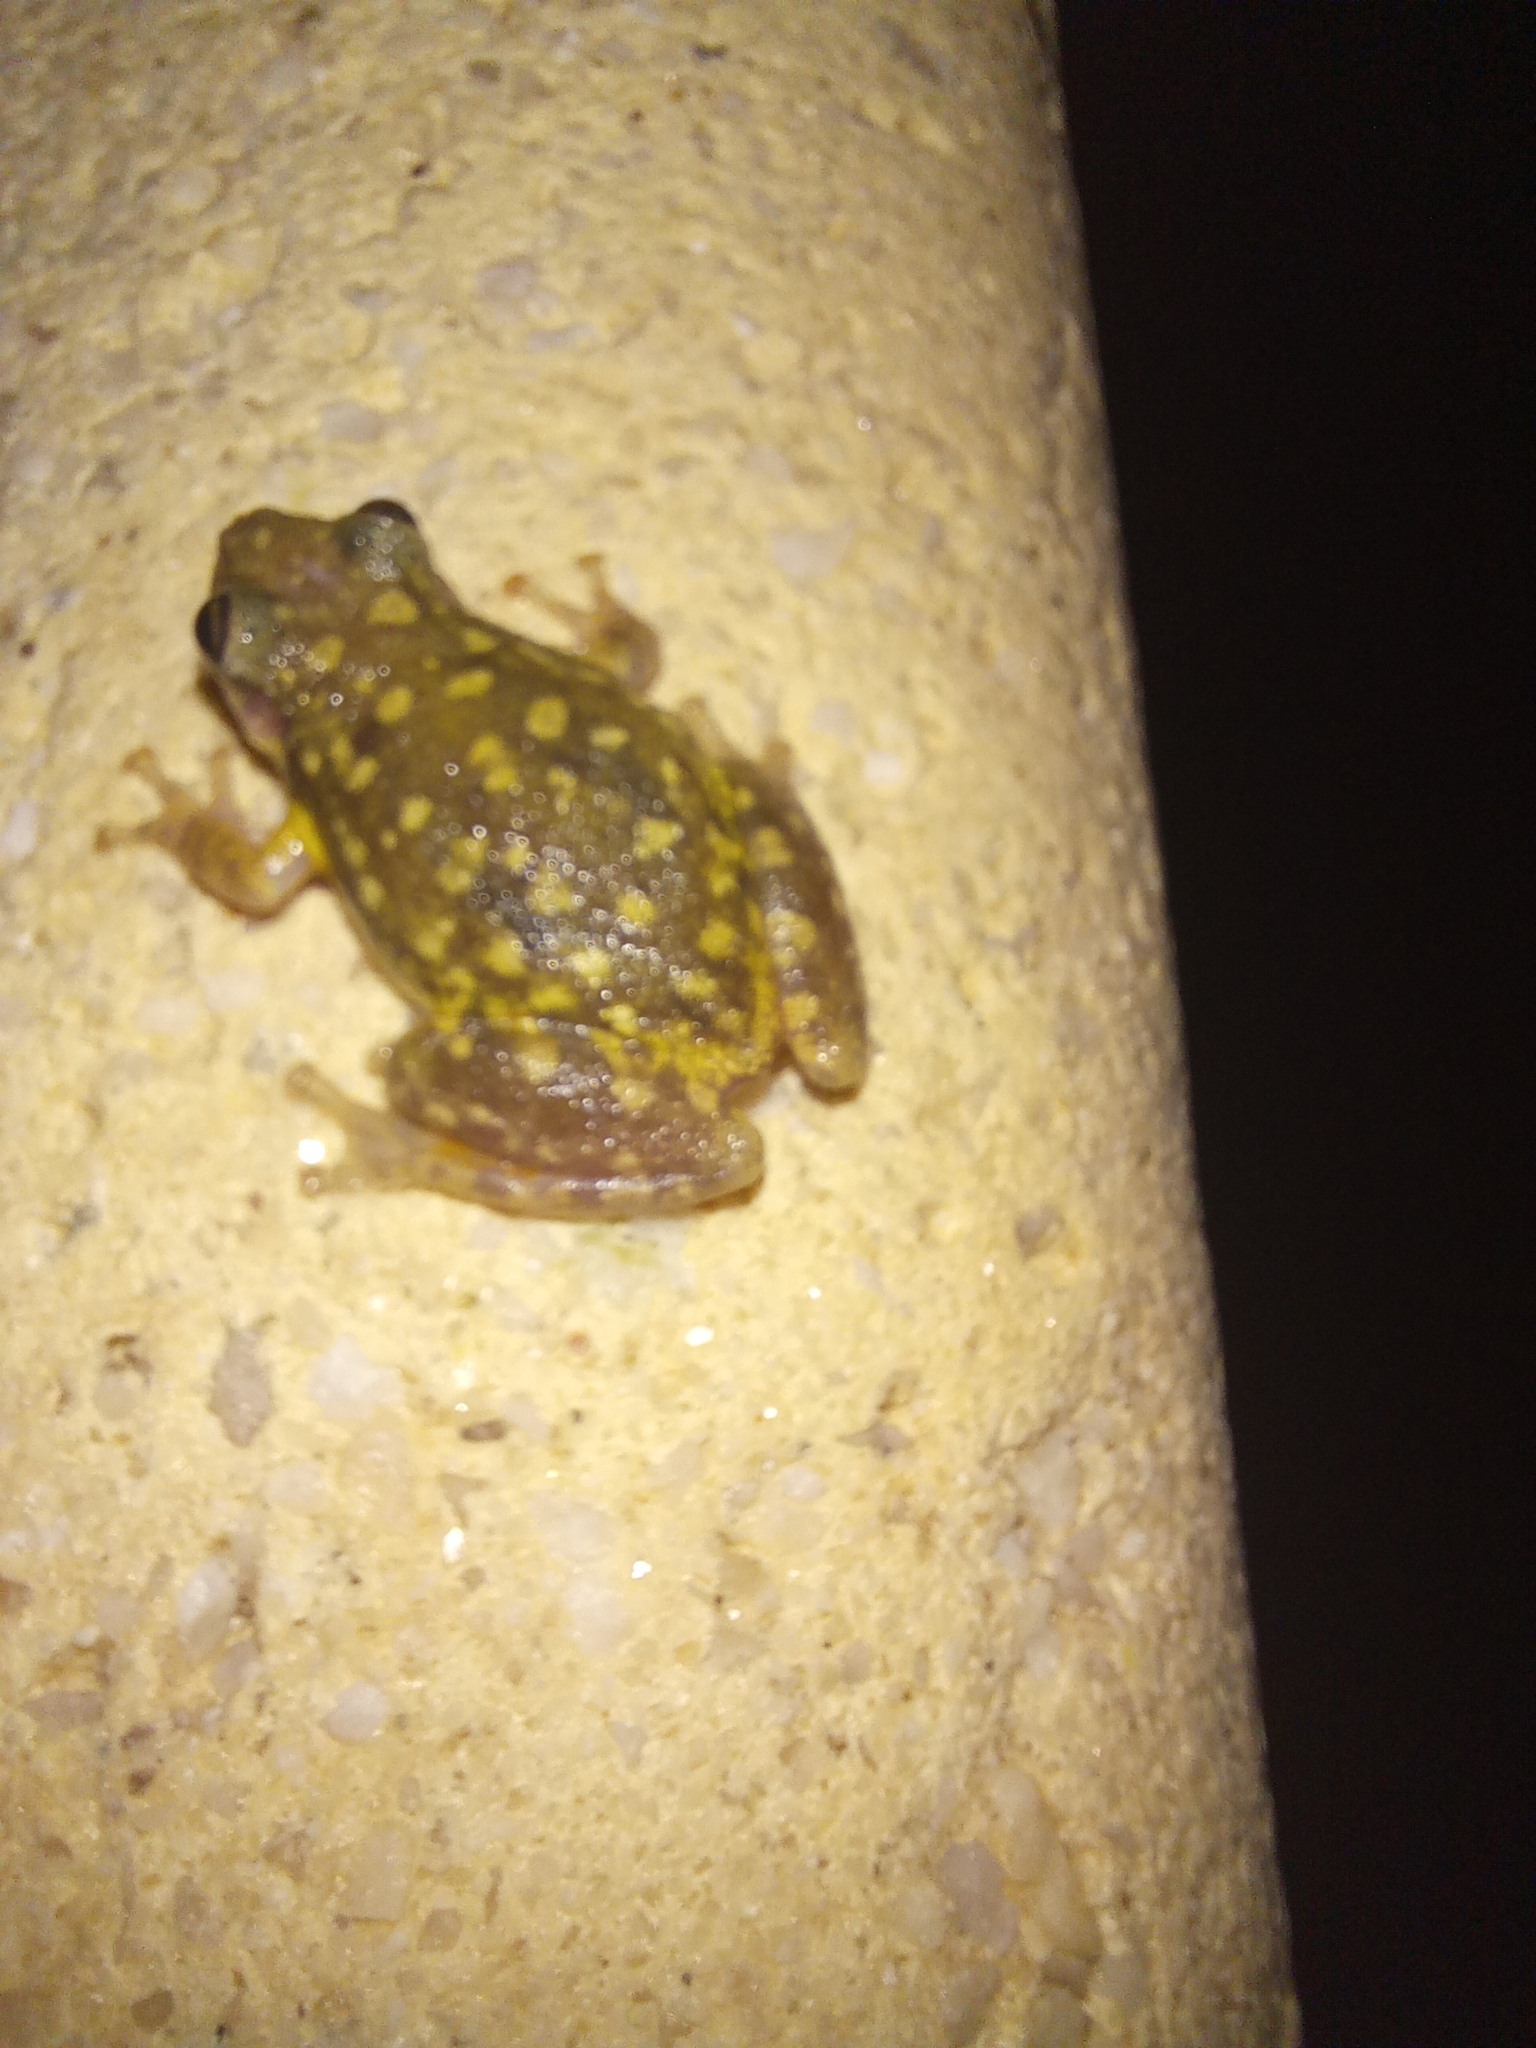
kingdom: Animalia
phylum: Chordata
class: Amphibia
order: Anura
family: Hylidae
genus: Scinax
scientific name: Scinax nasicus
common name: Lesser snouted treefrog
